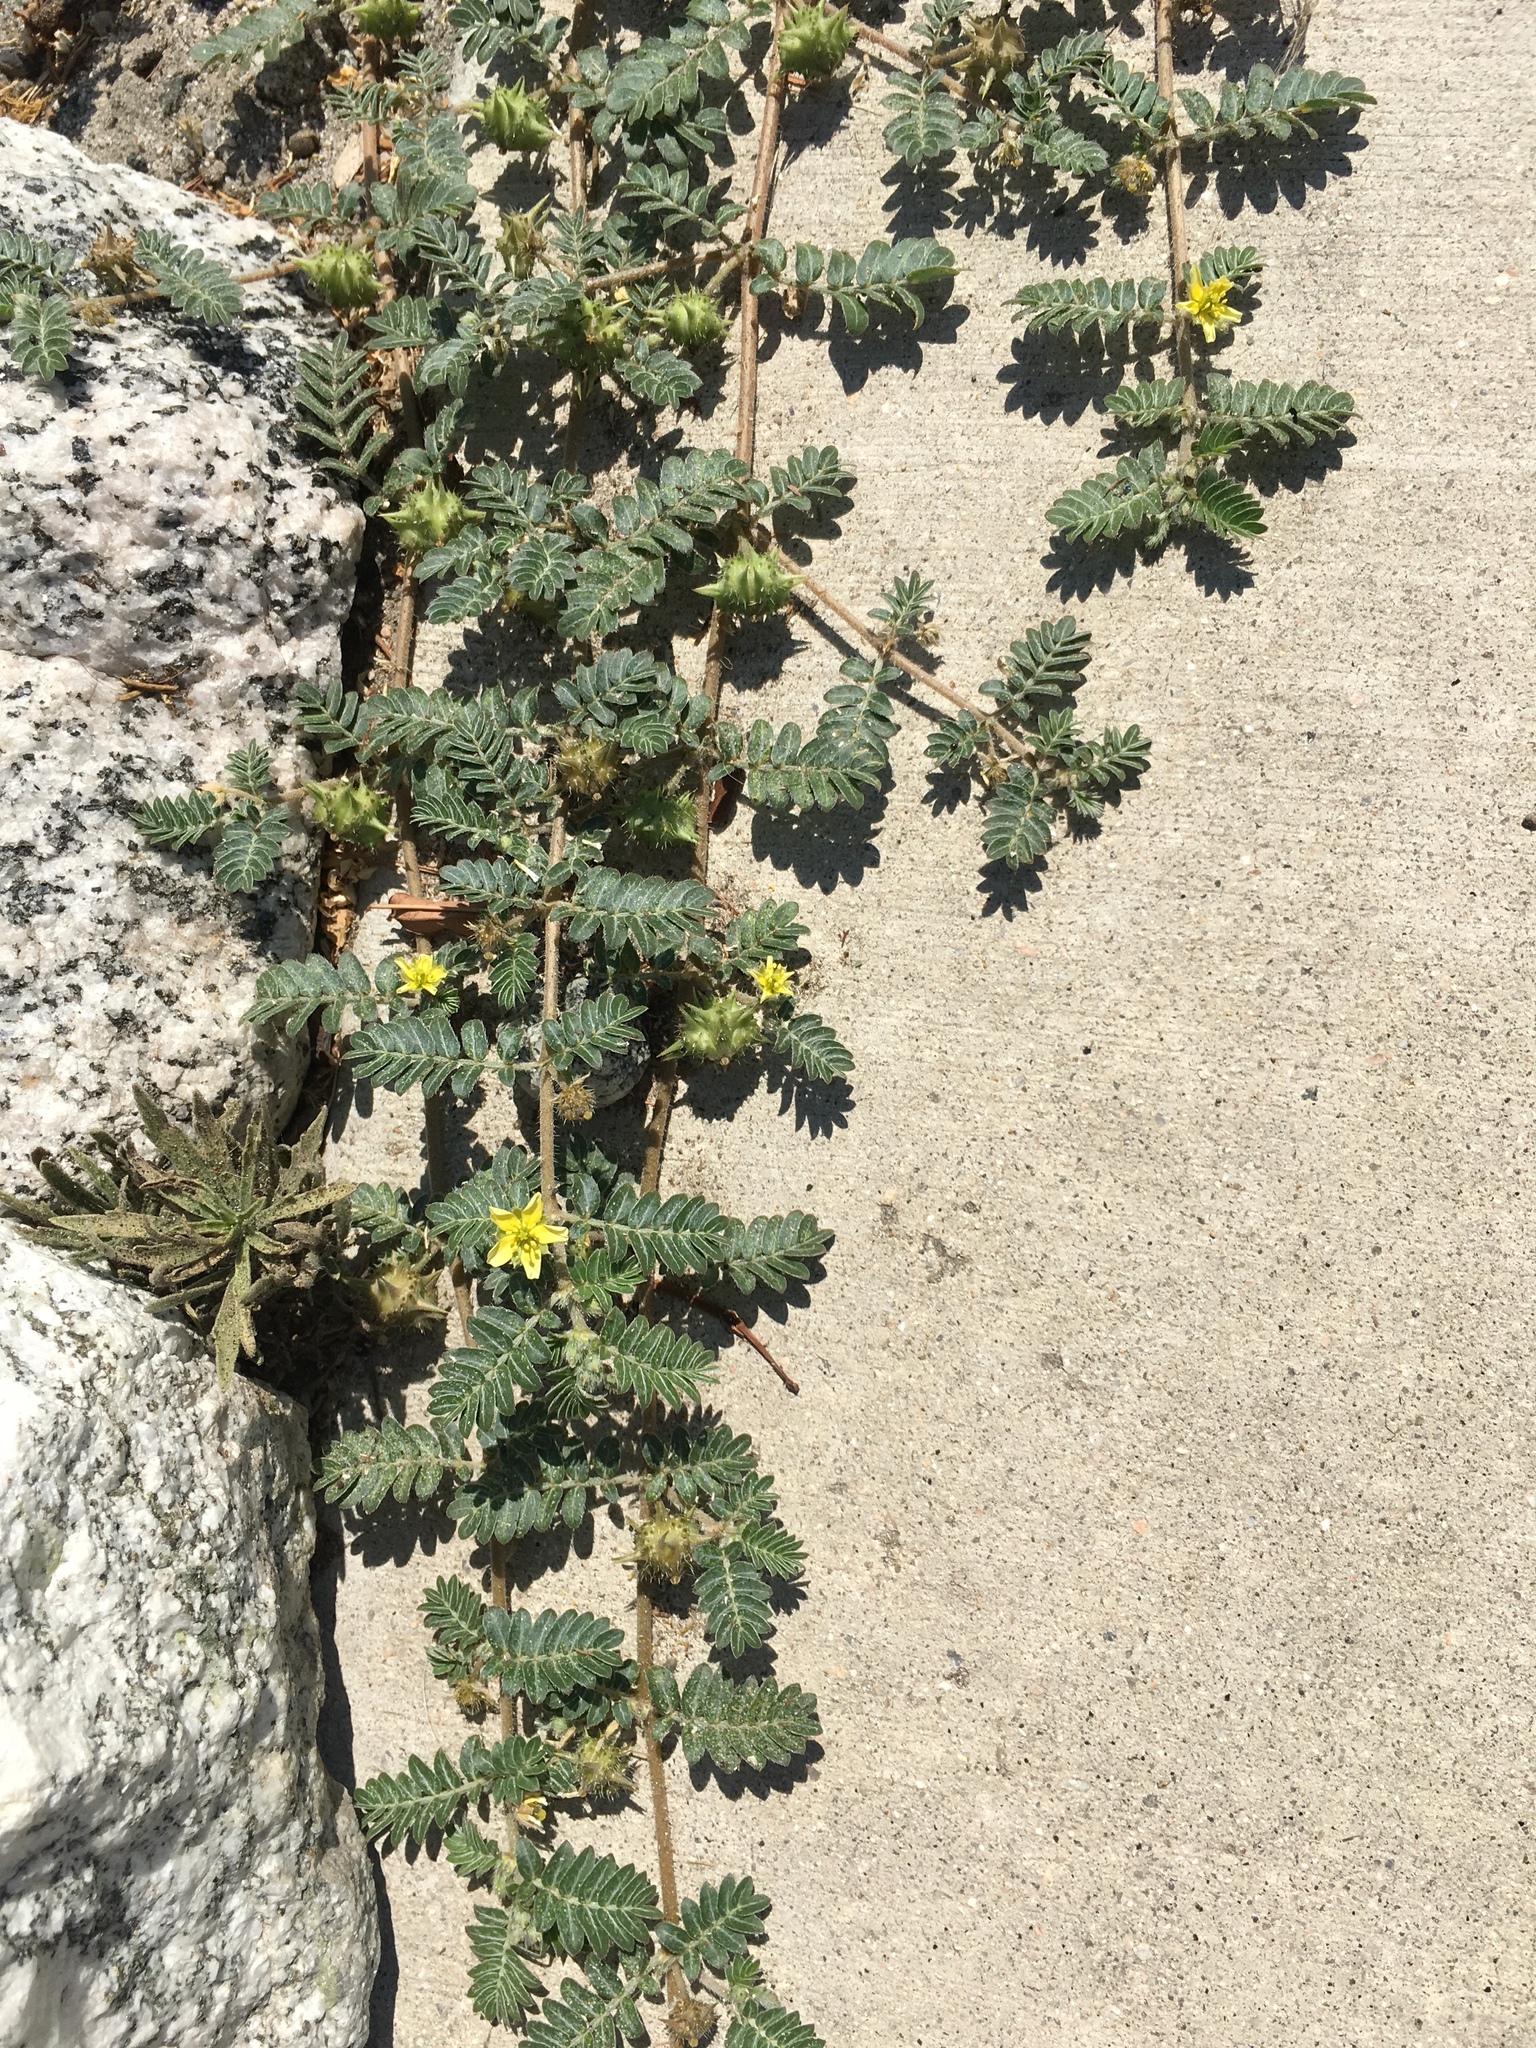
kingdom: Plantae
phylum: Tracheophyta
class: Magnoliopsida
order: Zygophyllales
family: Zygophyllaceae
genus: Tribulus
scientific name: Tribulus terrestris
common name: Puncturevine
